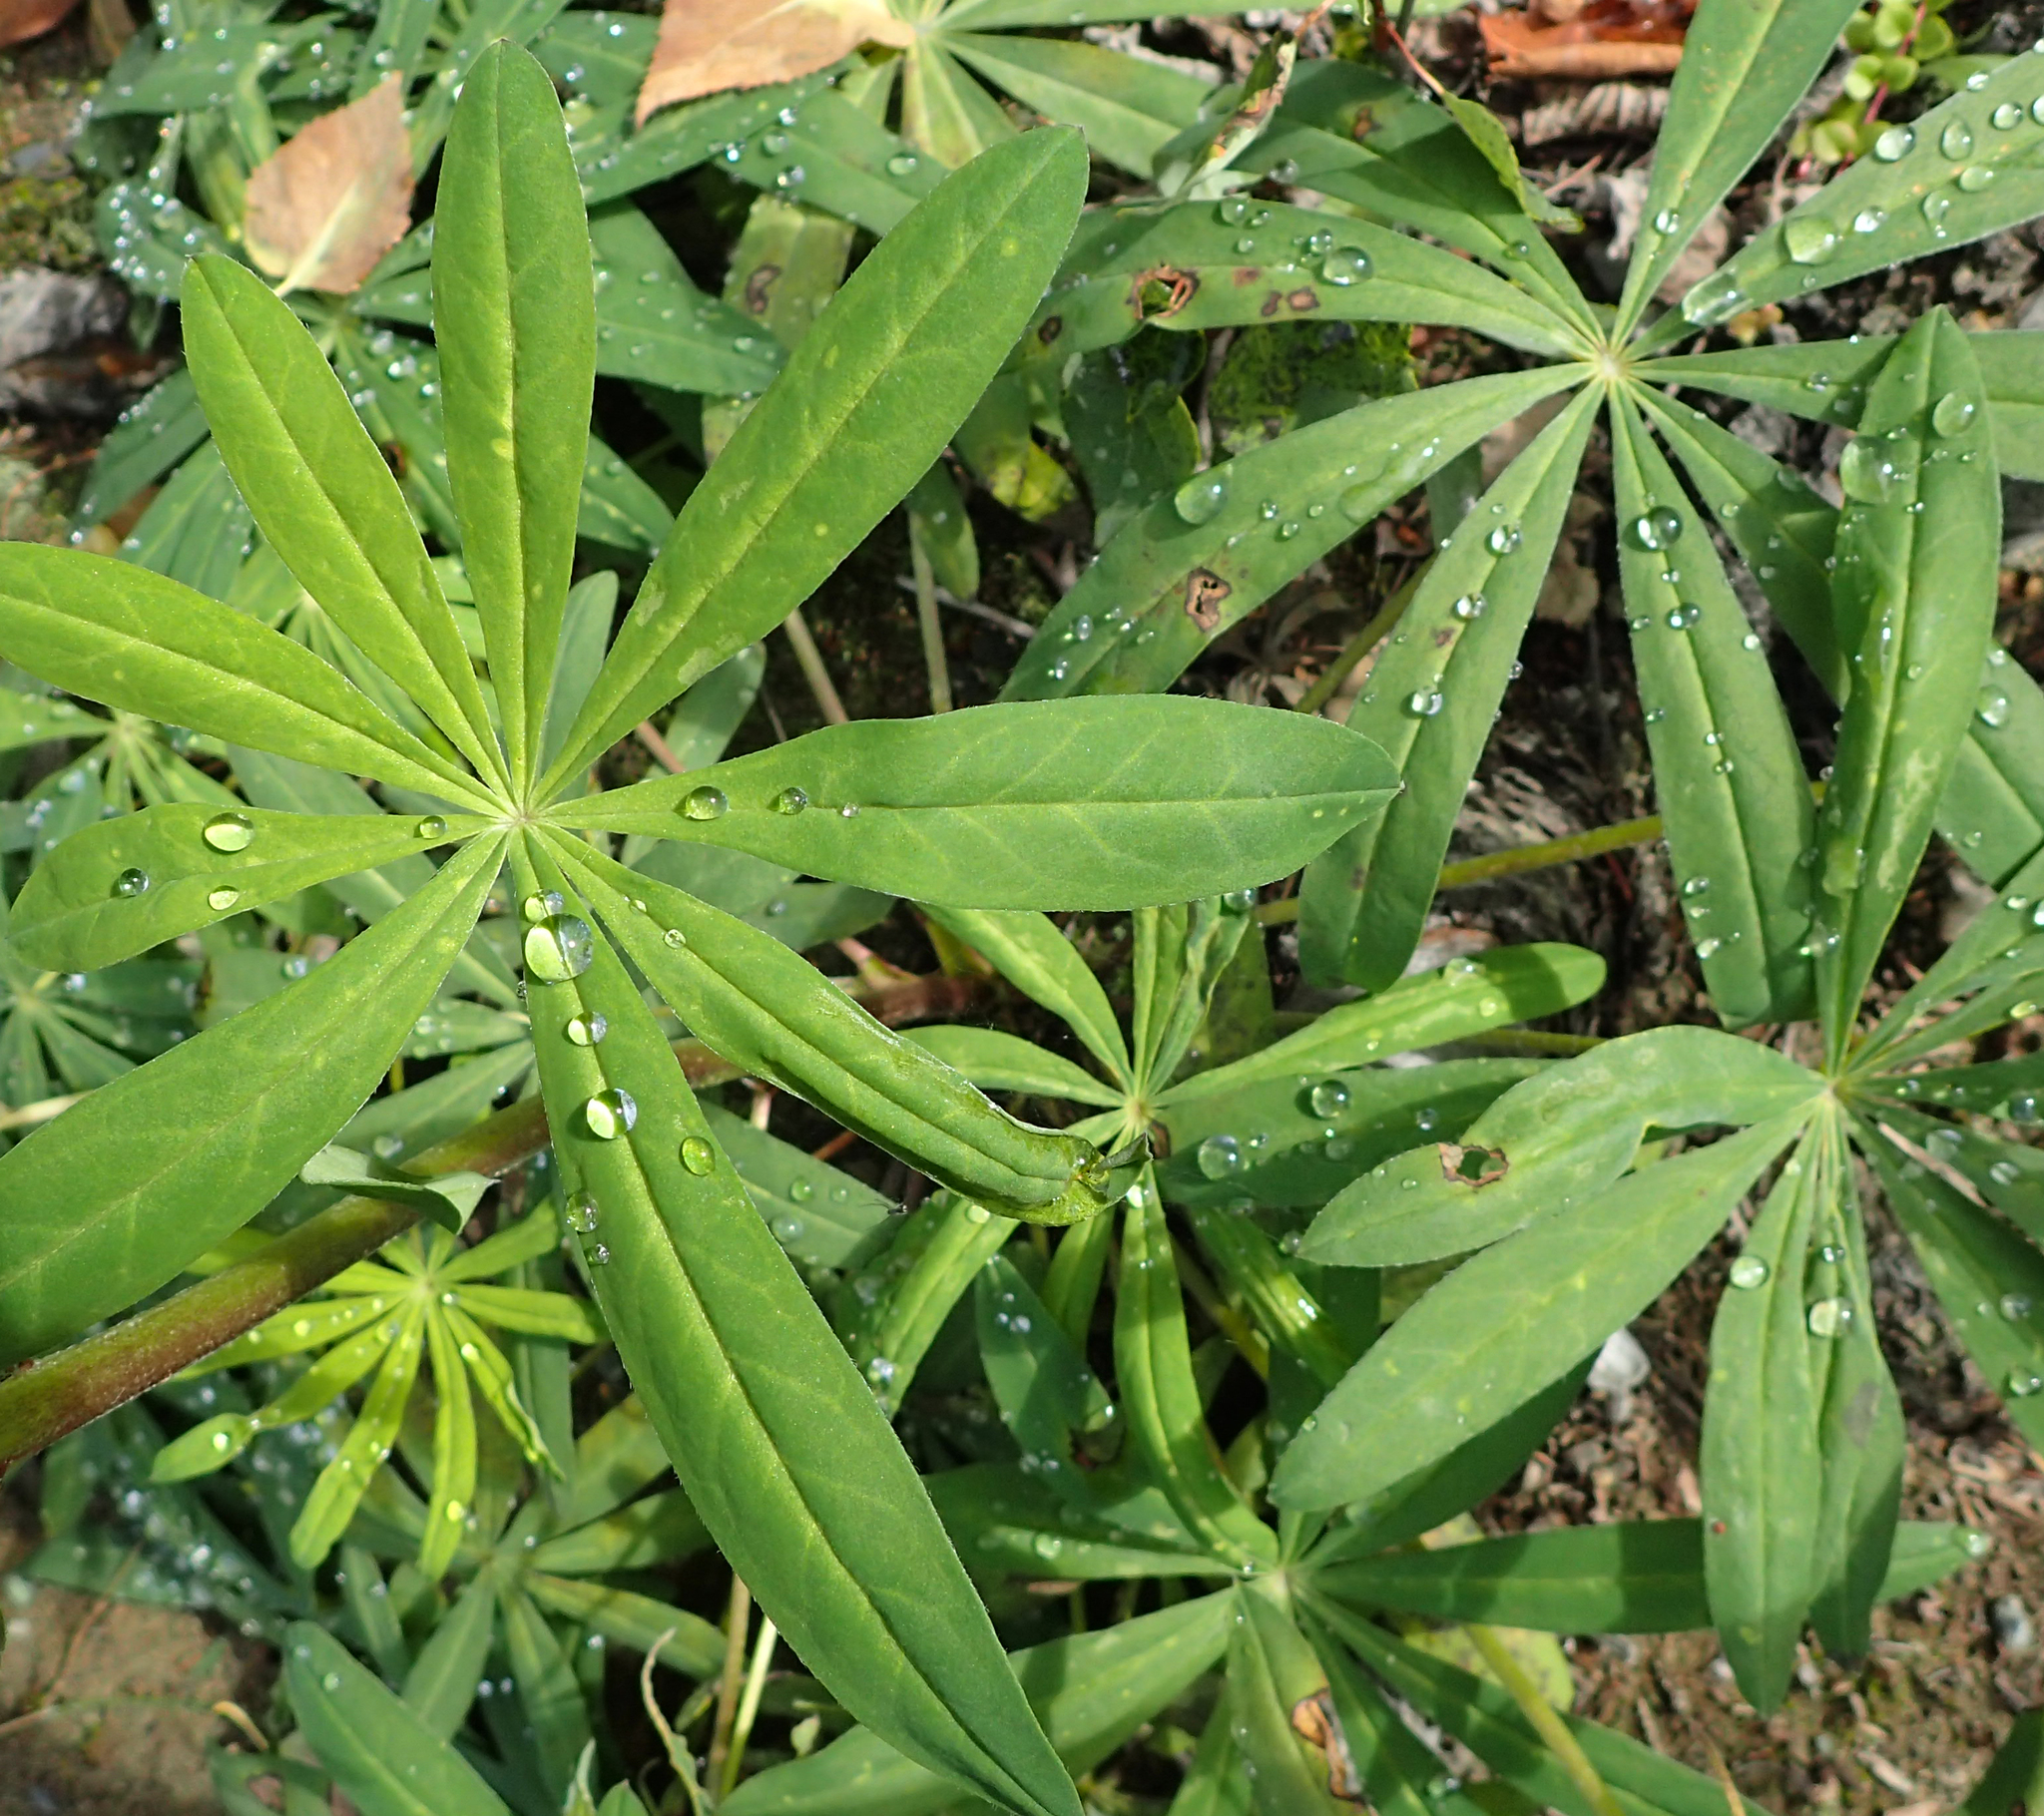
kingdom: Plantae
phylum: Tracheophyta
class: Magnoliopsida
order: Fabales
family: Fabaceae
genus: Lupinus
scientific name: Lupinus polyphyllus
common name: Garden lupin
